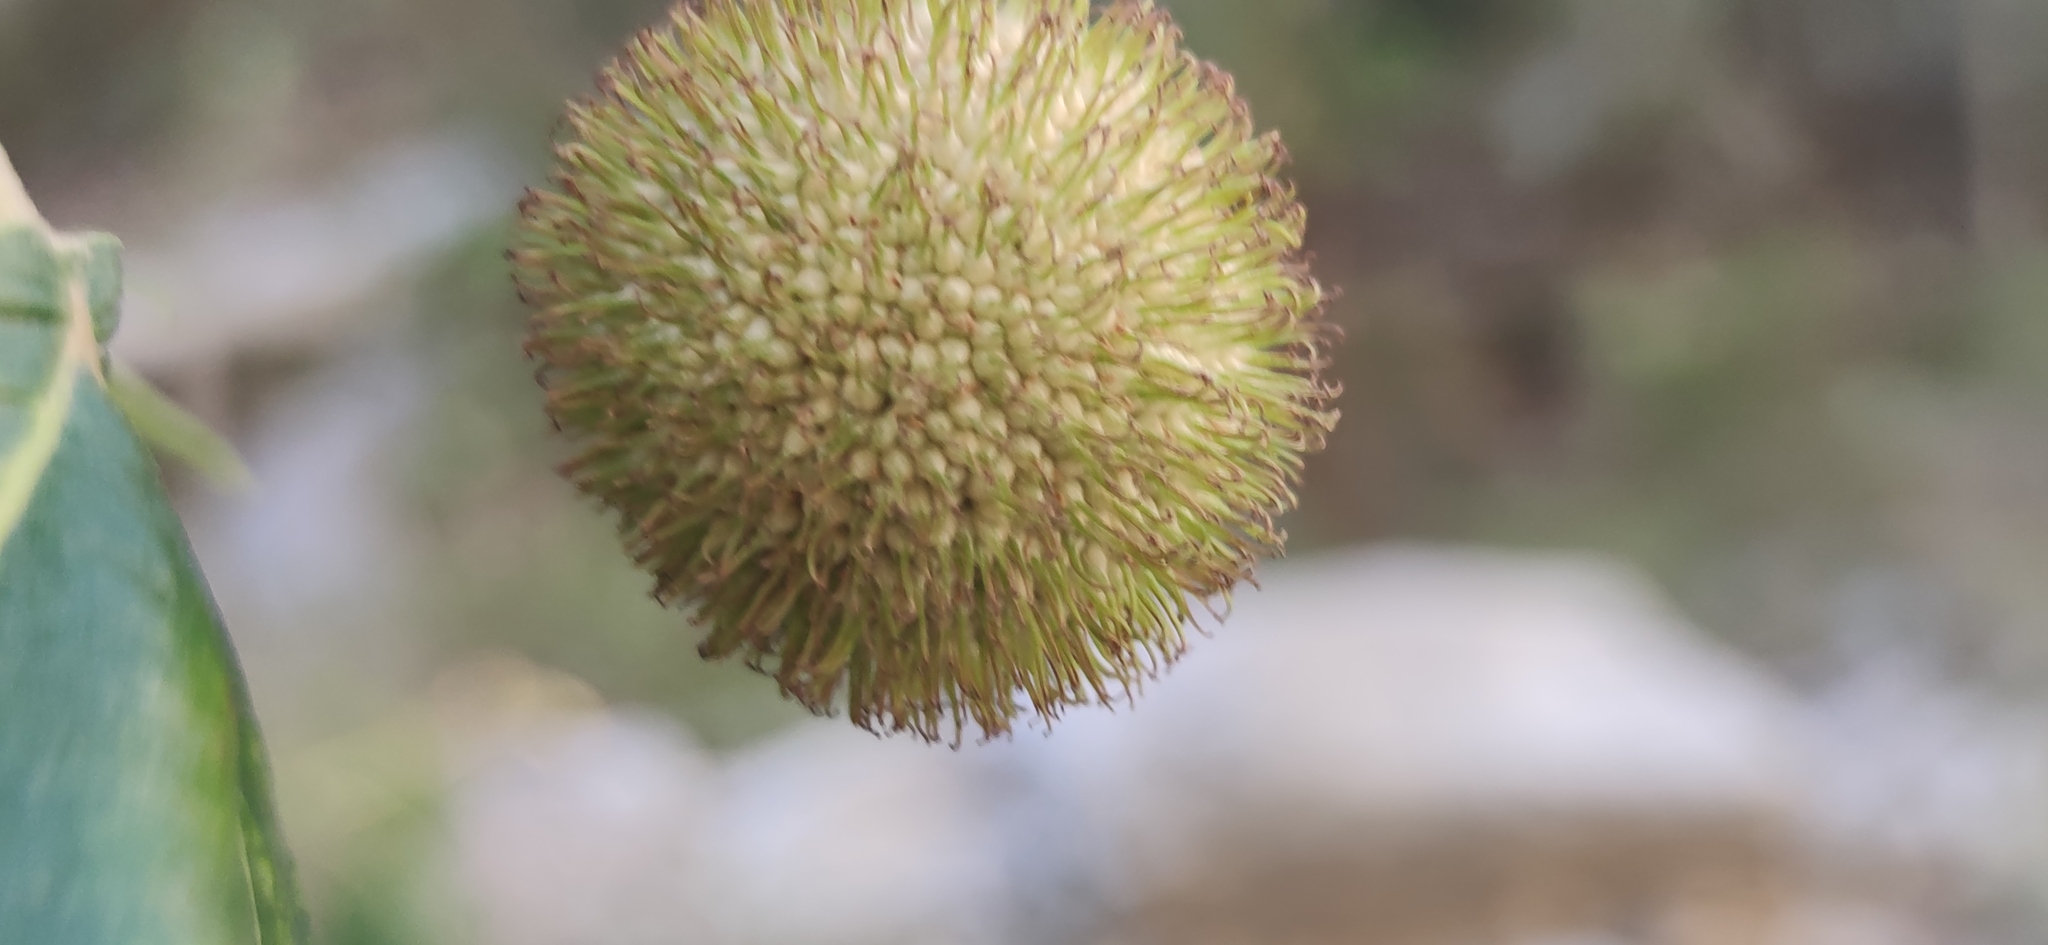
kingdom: Plantae
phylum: Tracheophyta
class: Magnoliopsida
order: Proteales
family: Platanaceae
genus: Platanus
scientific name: Platanus rzedowskii
